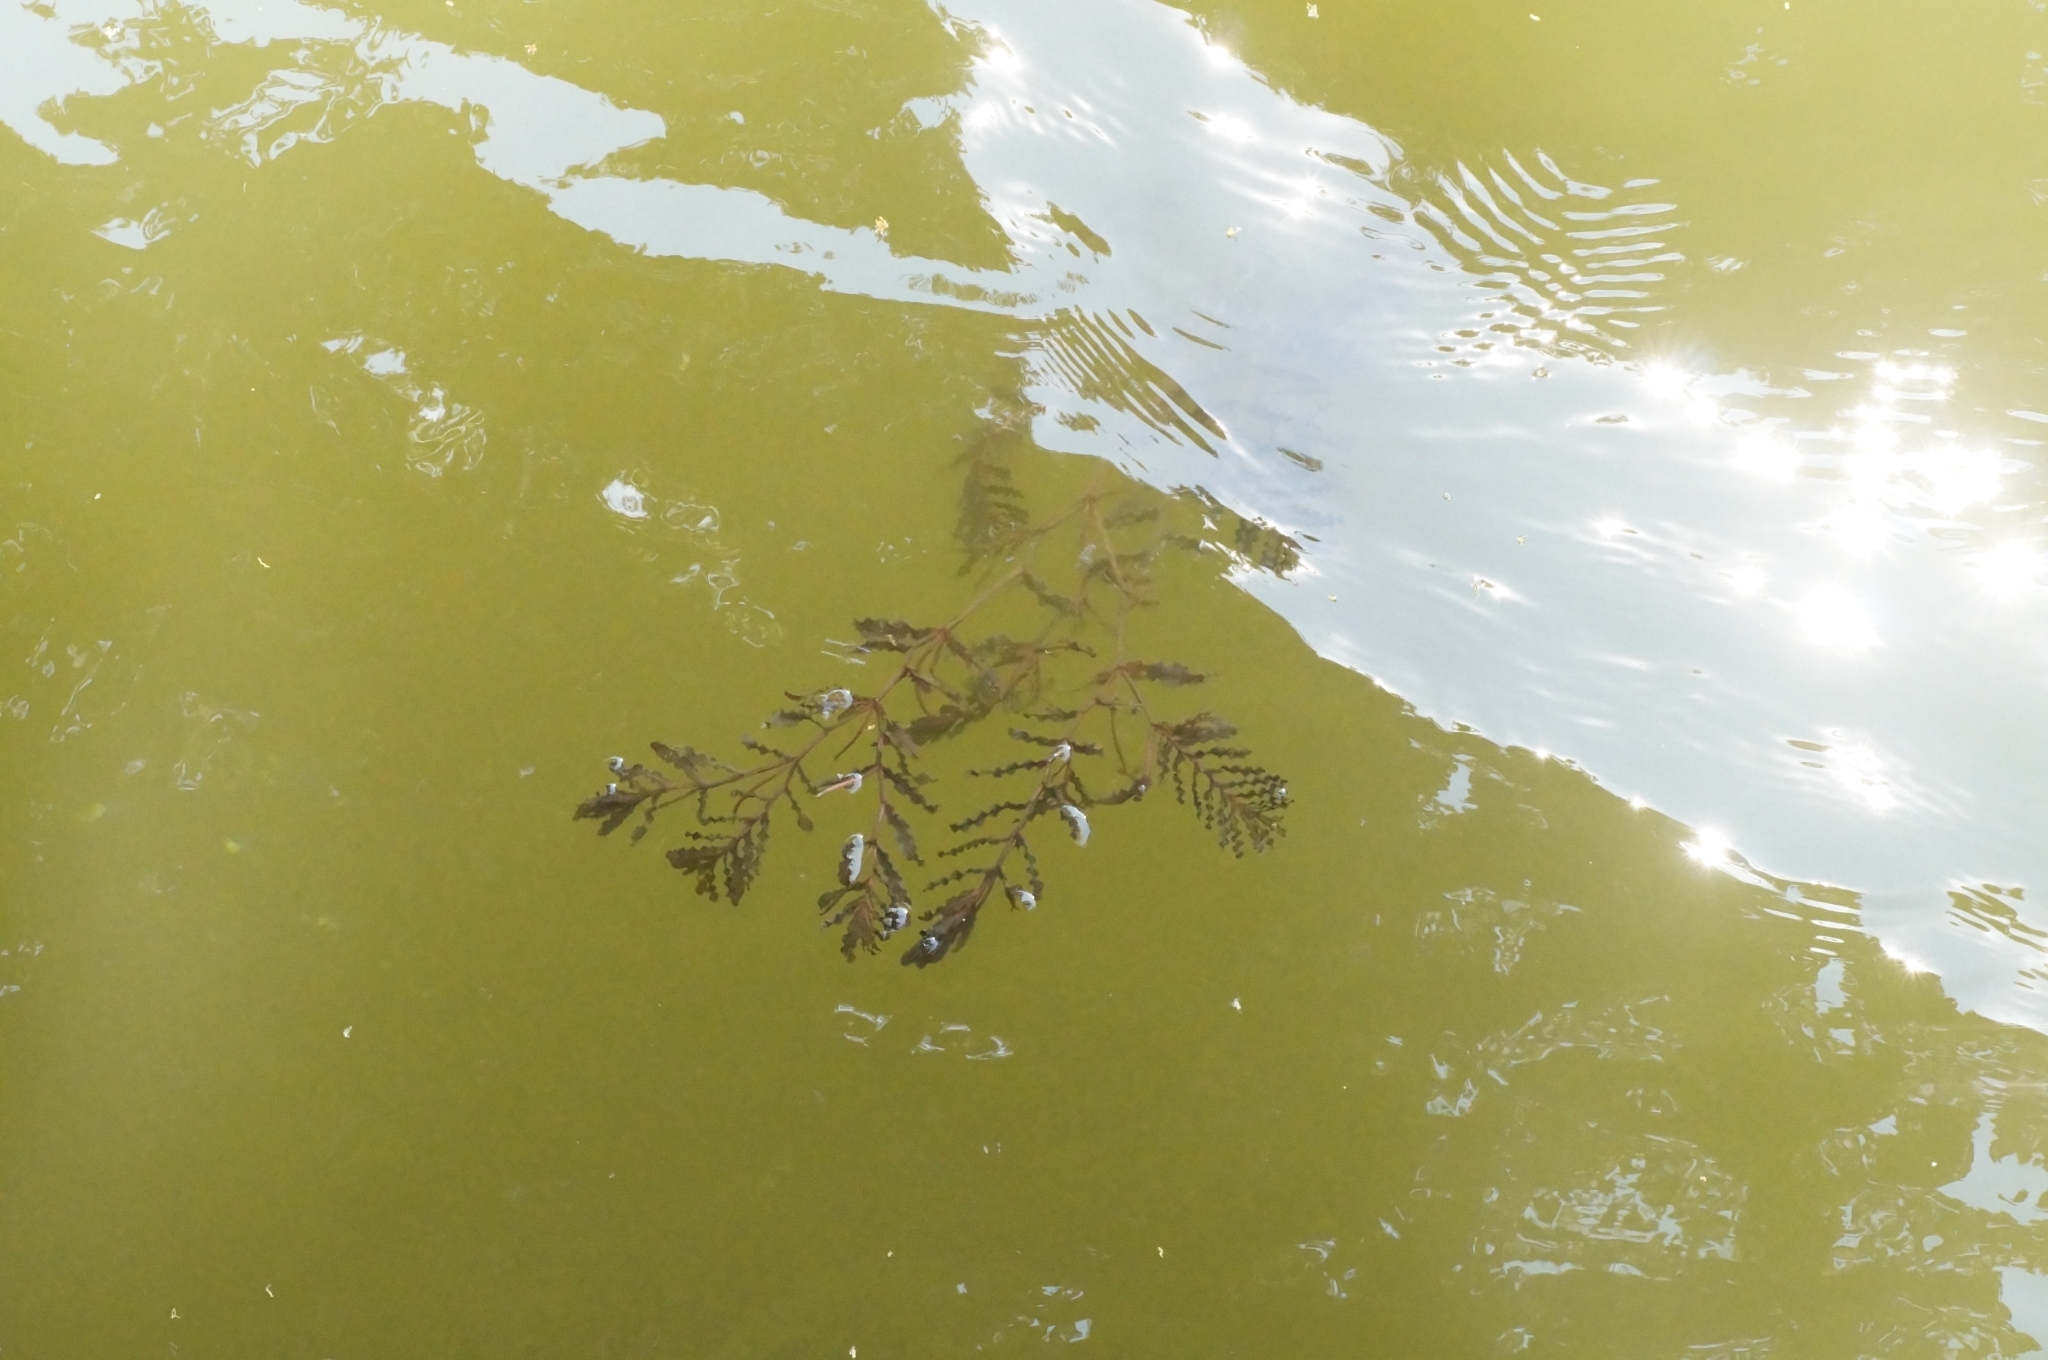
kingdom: Plantae
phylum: Tracheophyta
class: Liliopsida
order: Alismatales
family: Potamogetonaceae
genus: Potamogeton
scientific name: Potamogeton crispus
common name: Curled pondweed
